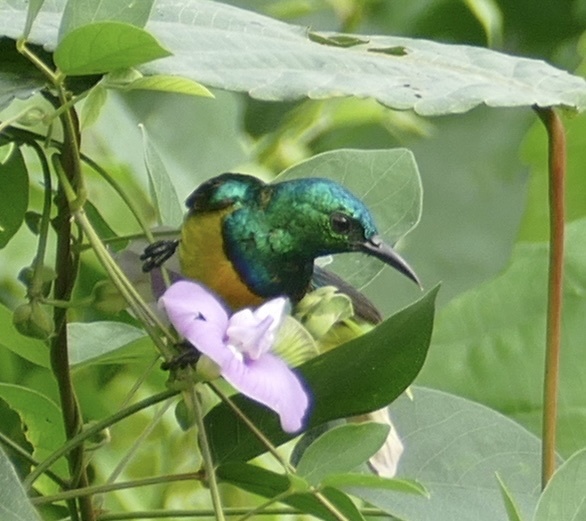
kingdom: Animalia
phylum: Chordata
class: Aves
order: Passeriformes
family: Nectariniidae
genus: Hedydipna
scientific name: Hedydipna collaris
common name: Collared sunbird
